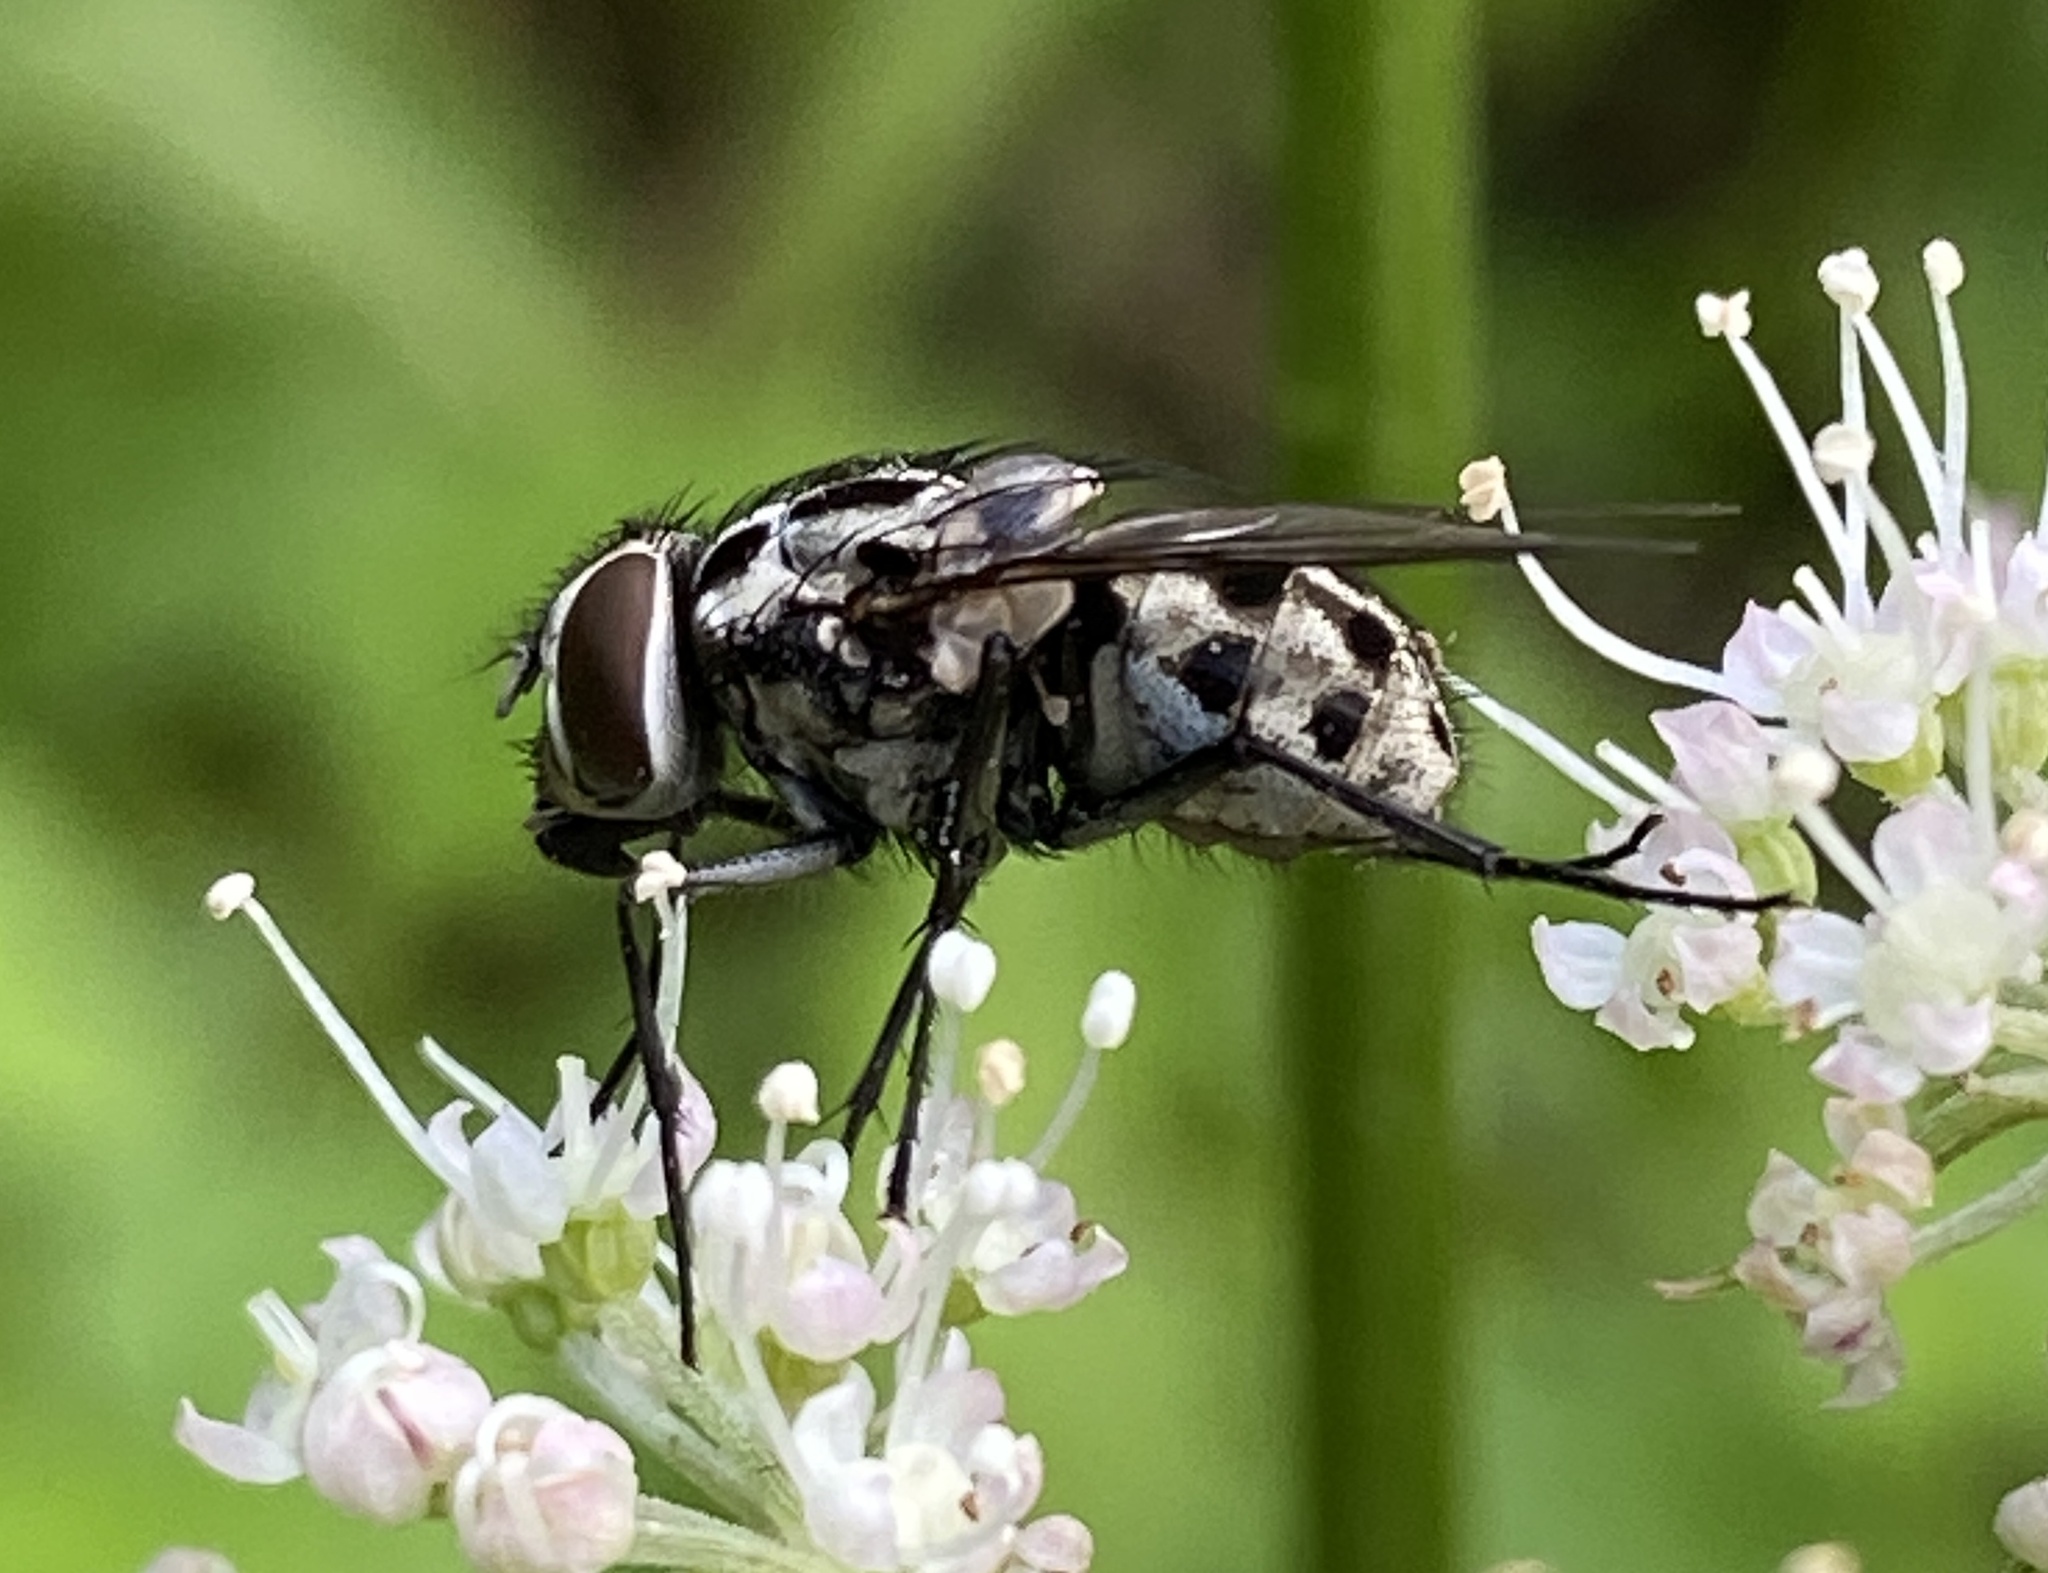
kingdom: Animalia
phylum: Arthropoda
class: Insecta
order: Diptera
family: Muscidae
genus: Graphomya
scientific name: Graphomya maculata
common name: Muscid fly
